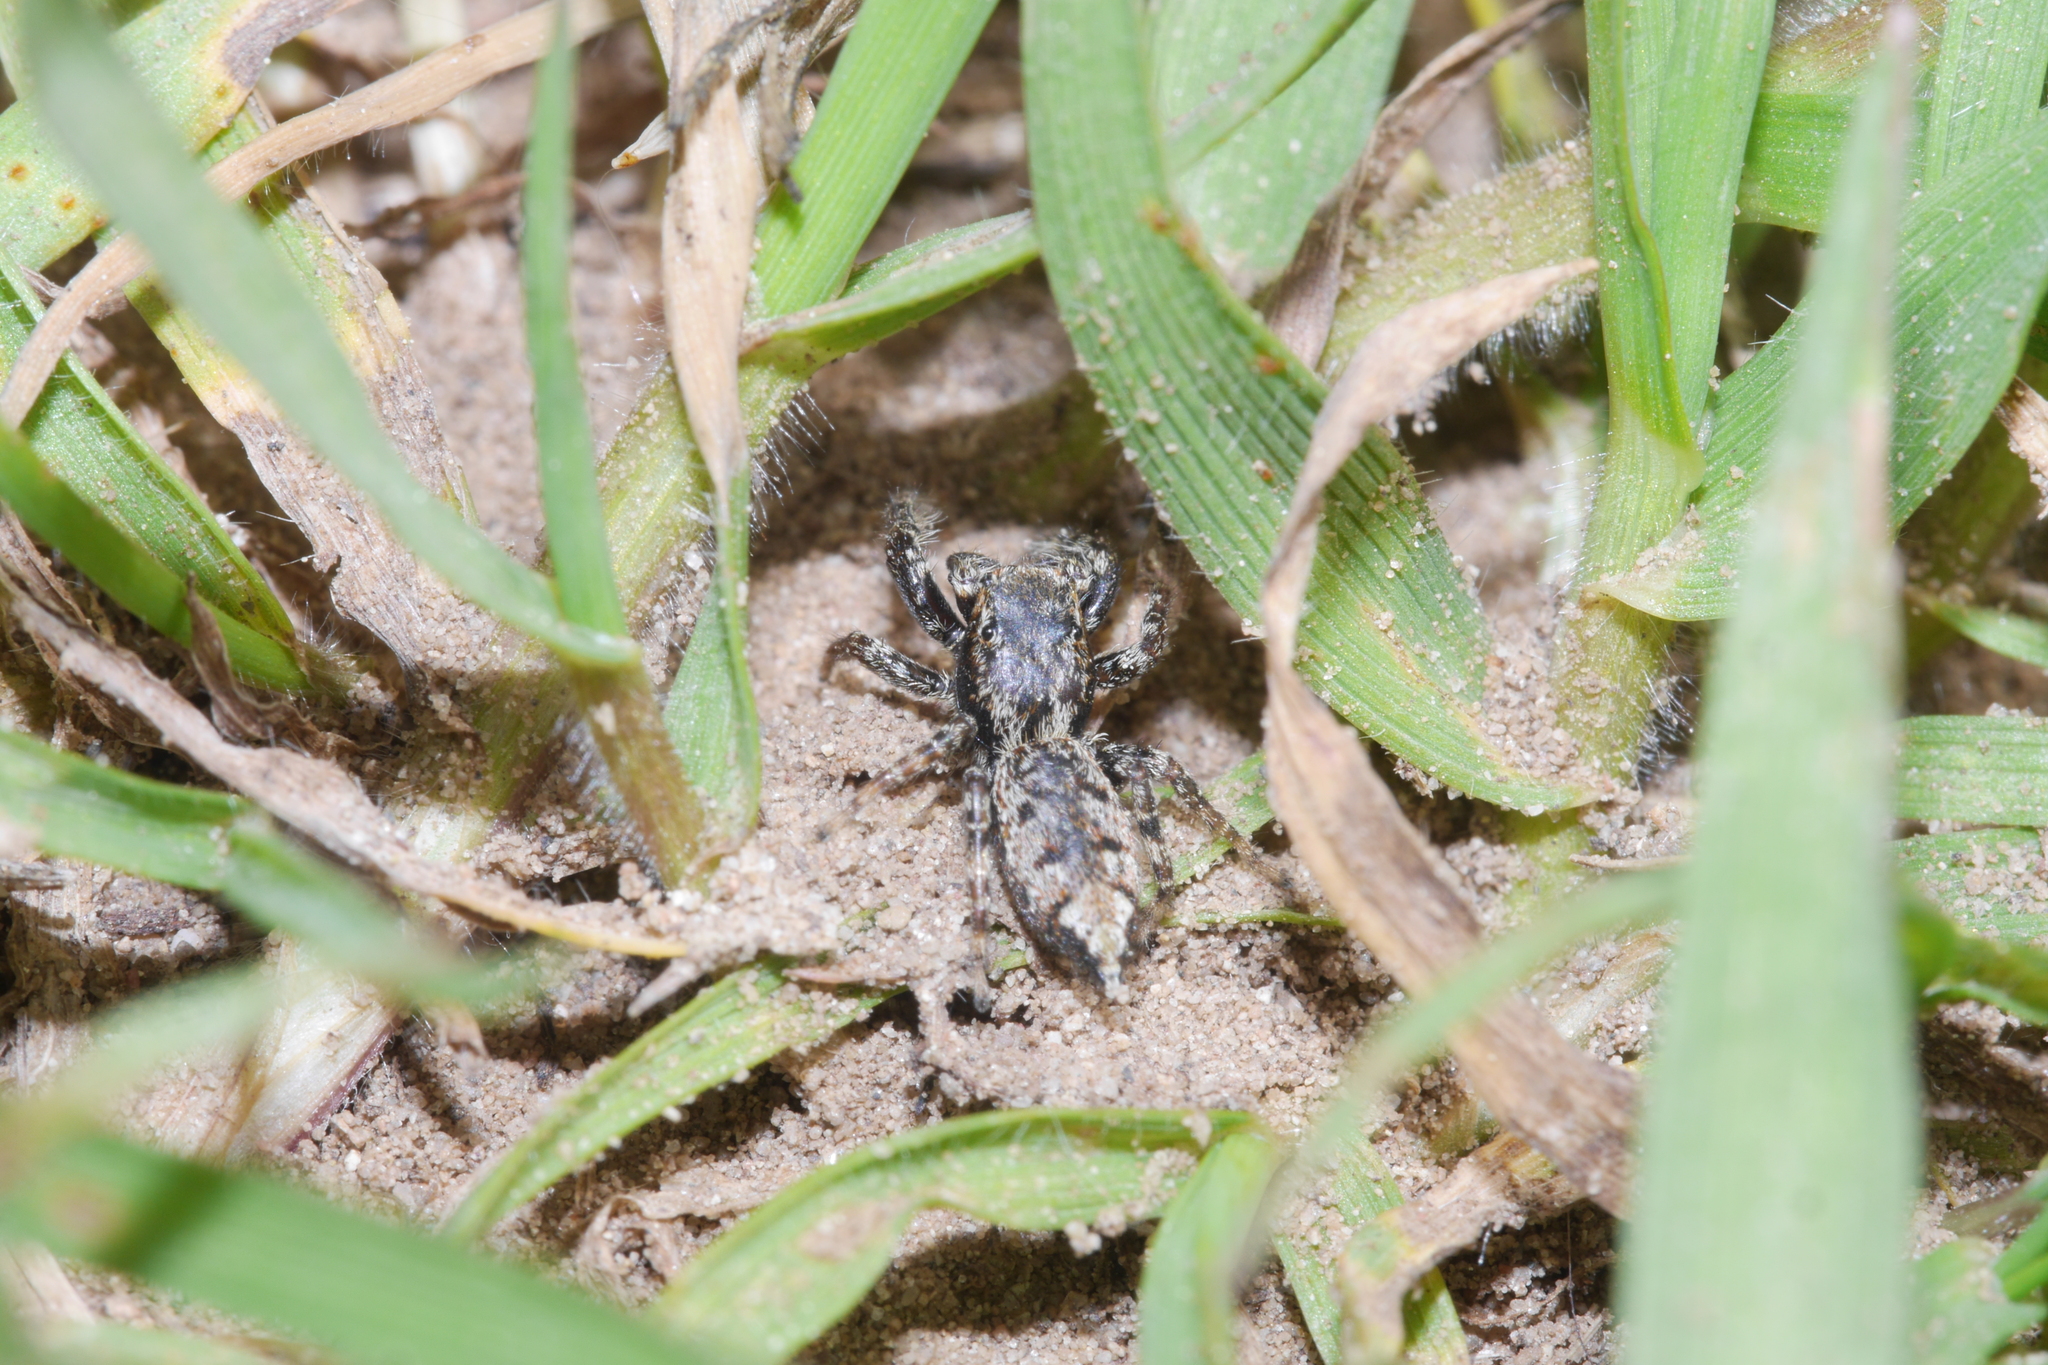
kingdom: Animalia
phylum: Arthropoda
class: Arachnida
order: Araneae
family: Salticidae
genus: Marpissa
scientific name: Marpissa muscosa
